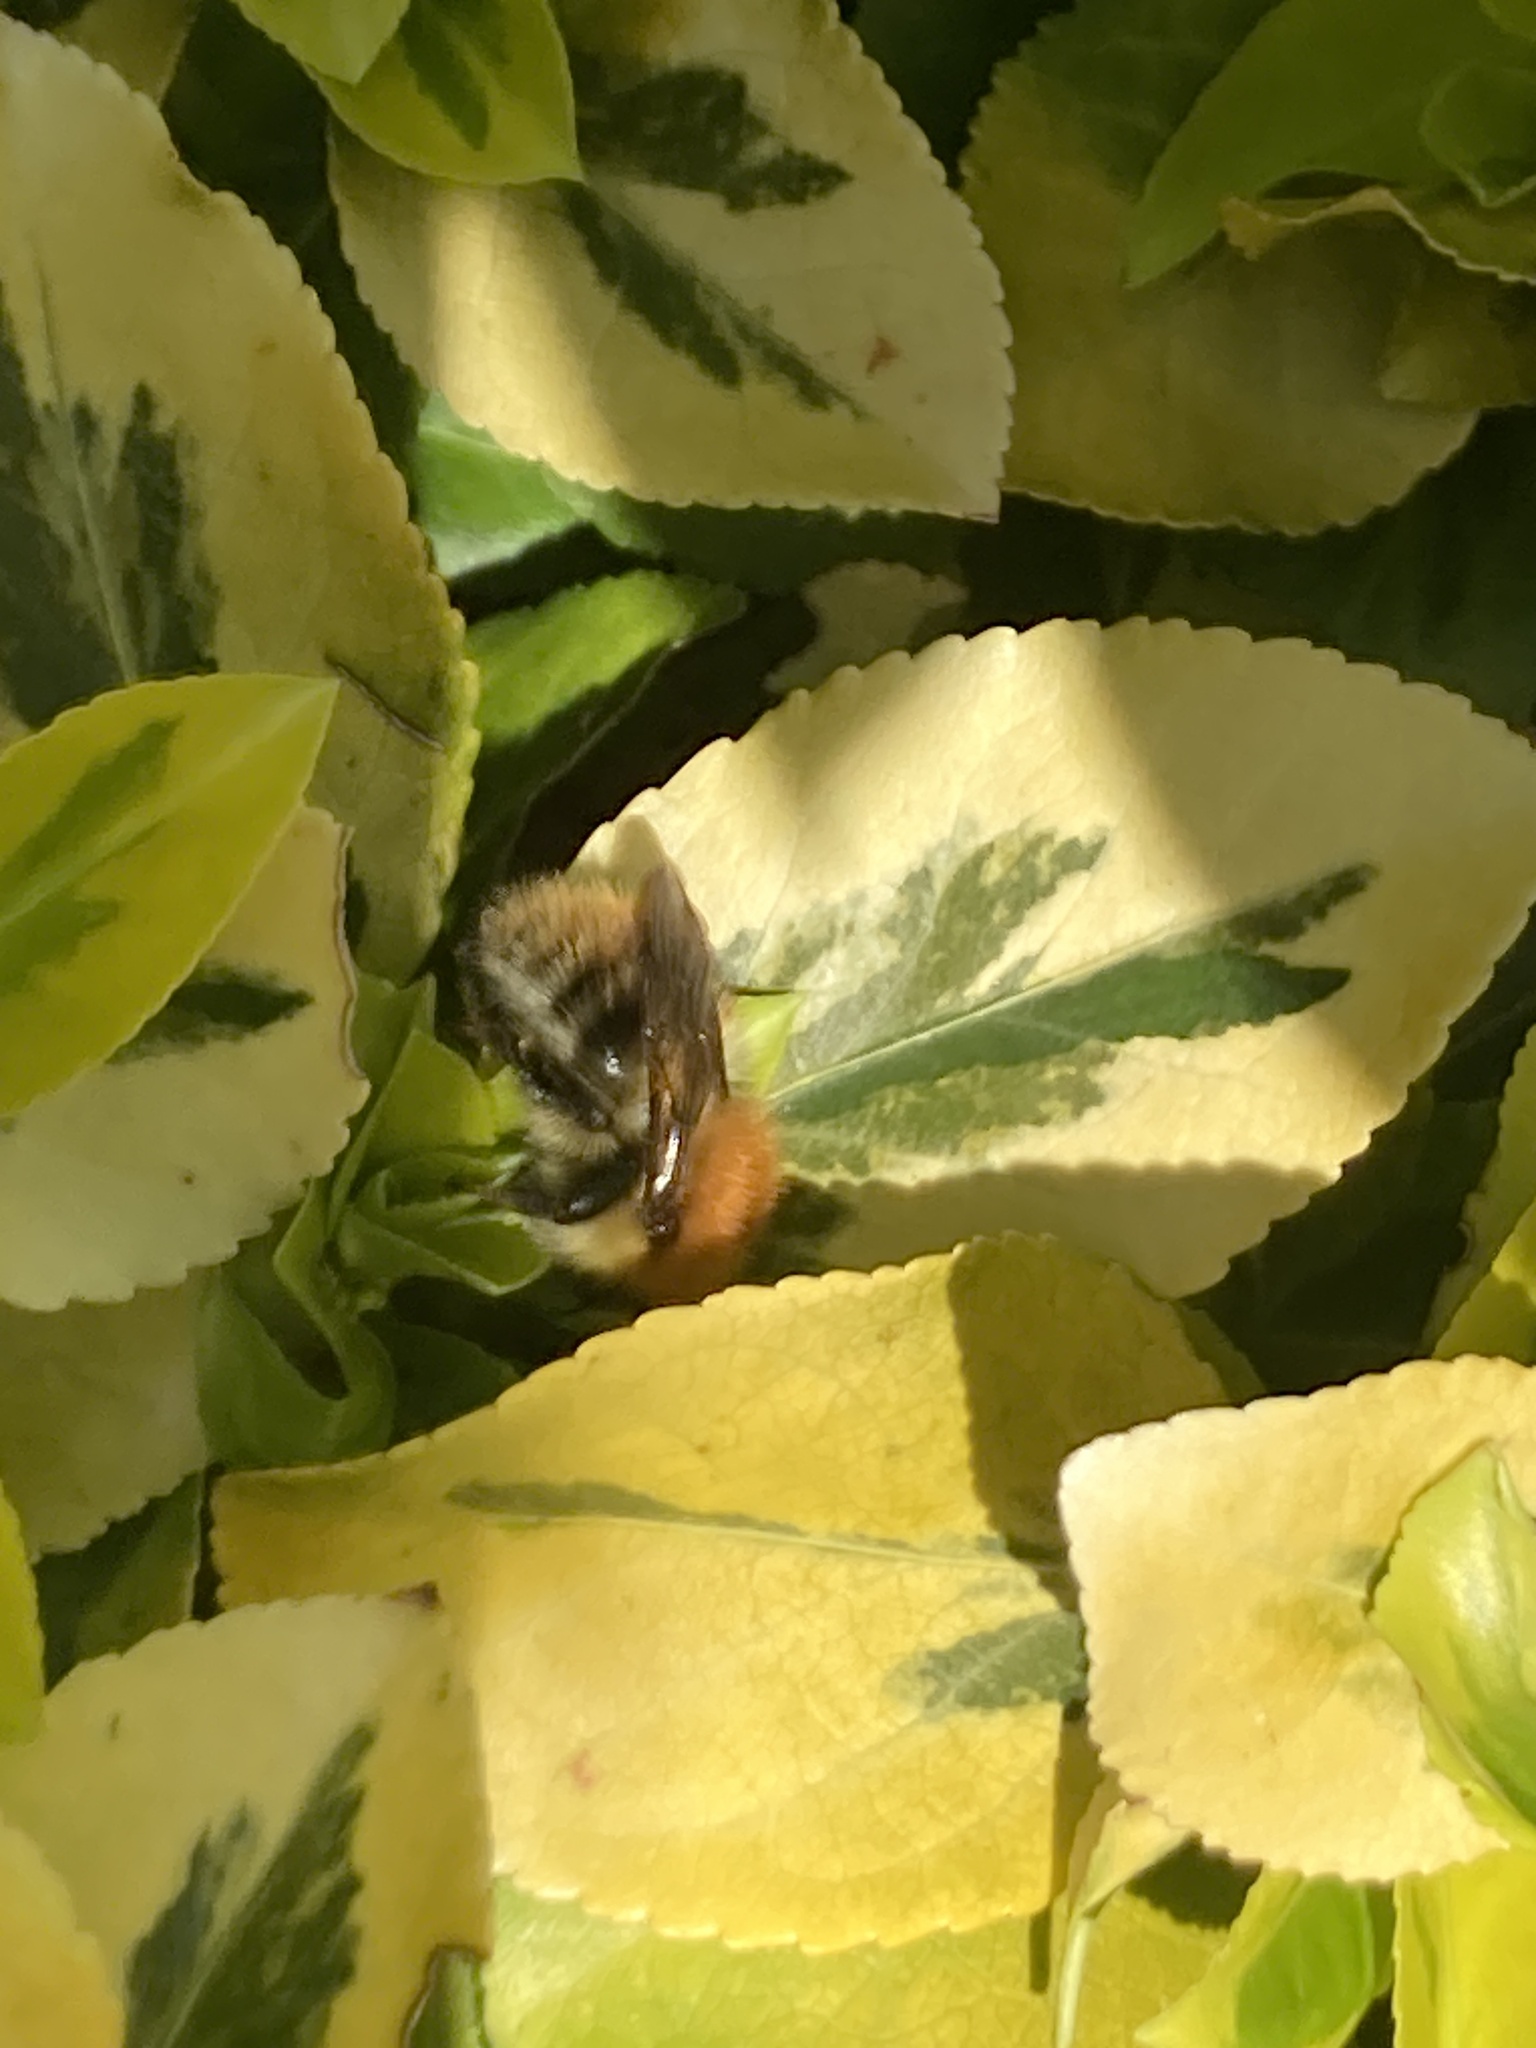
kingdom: Animalia
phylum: Arthropoda
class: Insecta
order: Hymenoptera
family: Apidae
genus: Bombus
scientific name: Bombus pascuorum
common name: Common carder bee
